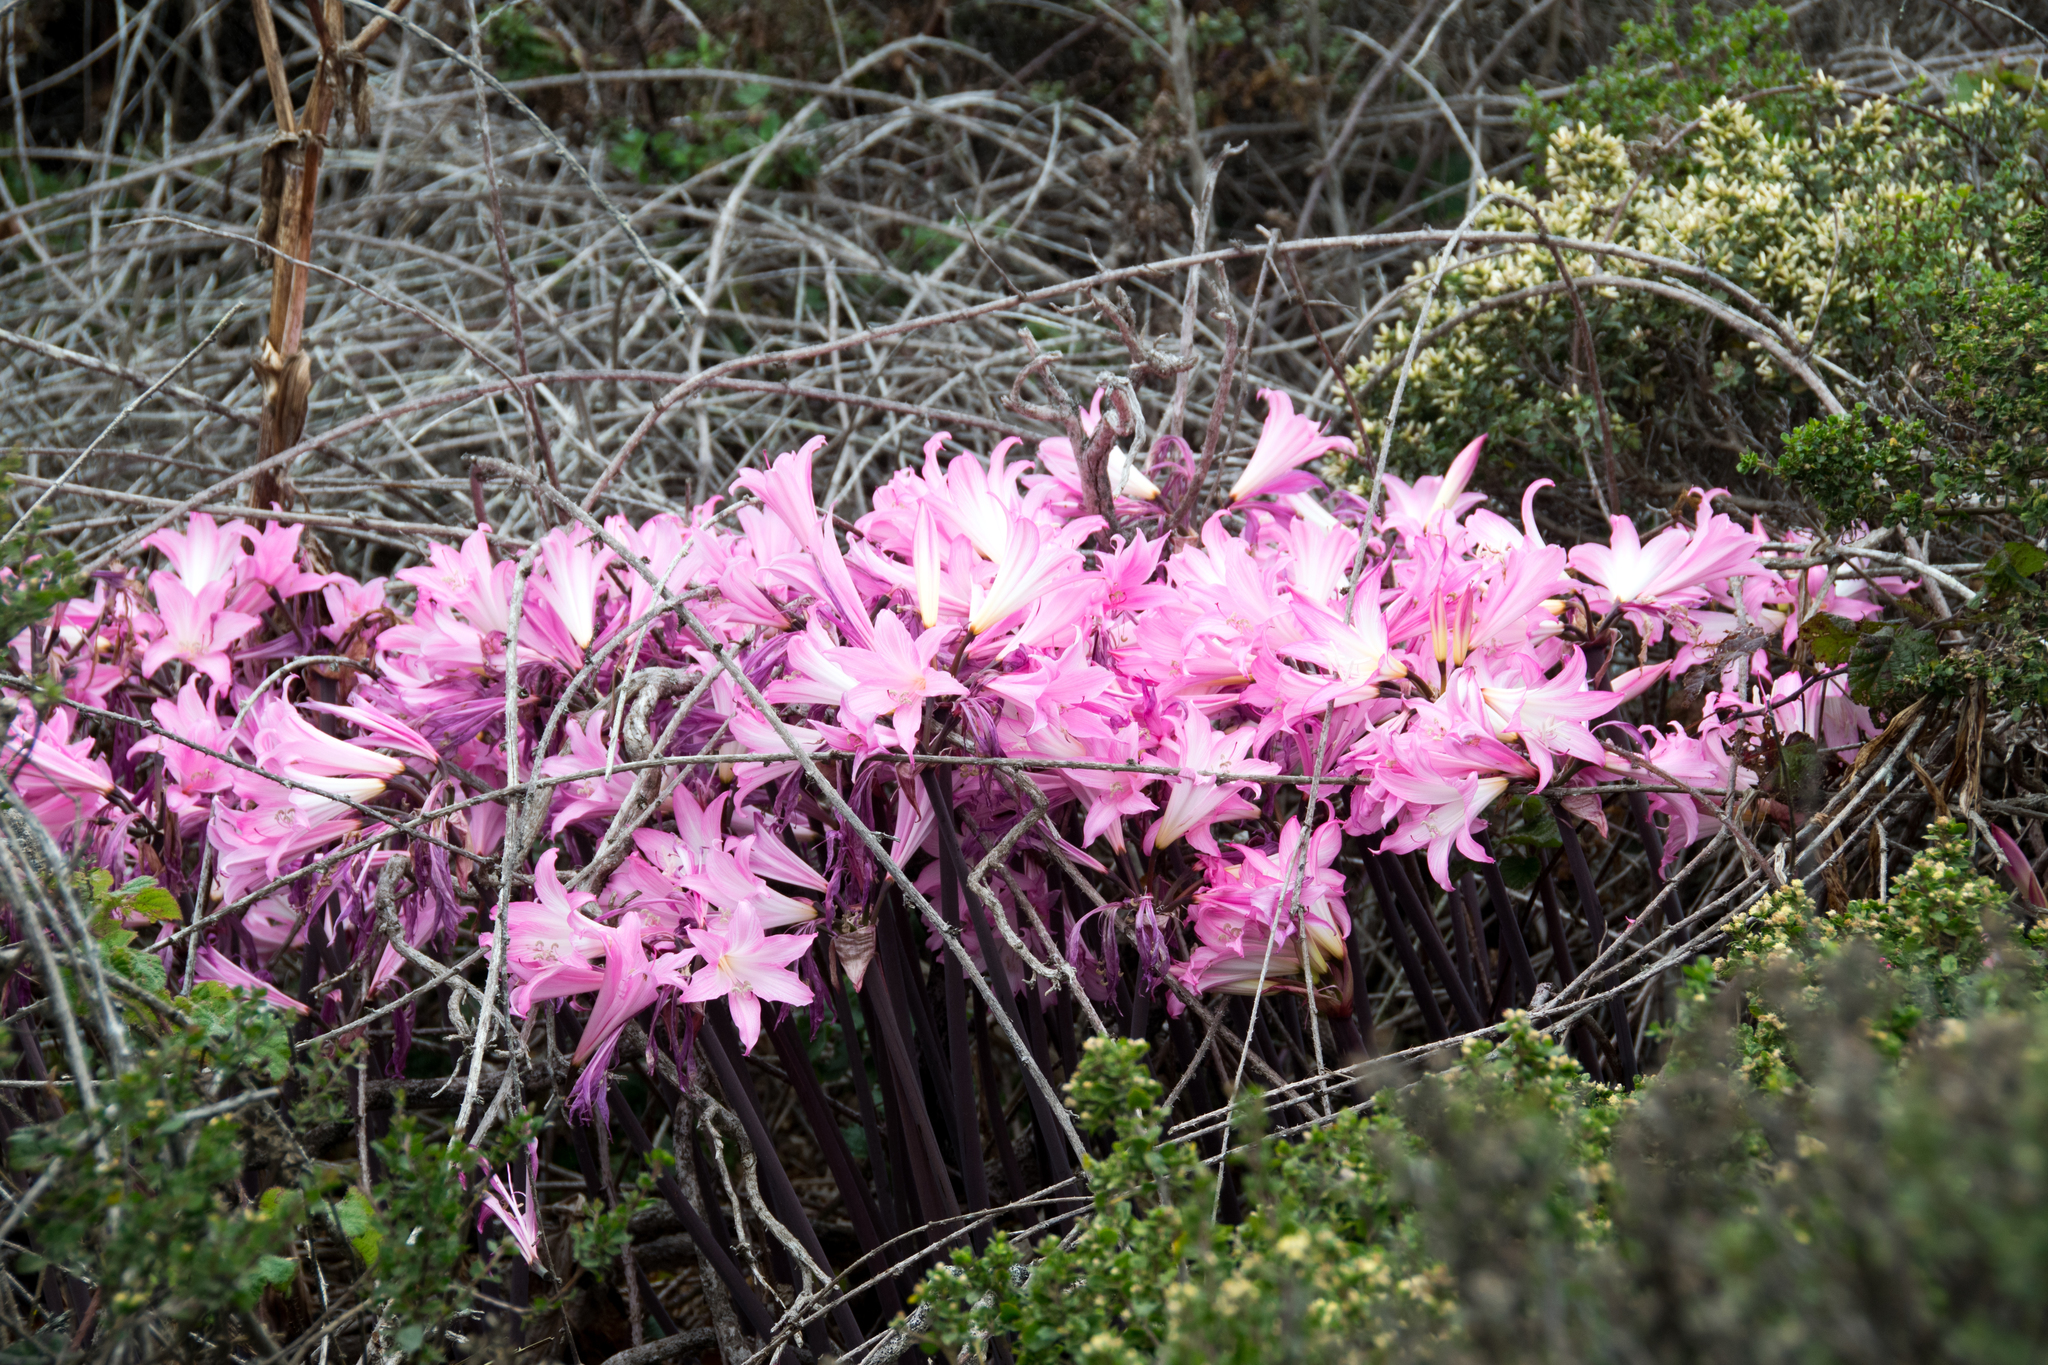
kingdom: Plantae
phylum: Tracheophyta
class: Liliopsida
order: Asparagales
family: Amaryllidaceae
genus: Amaryllis
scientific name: Amaryllis belladonna
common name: Jersey lily
